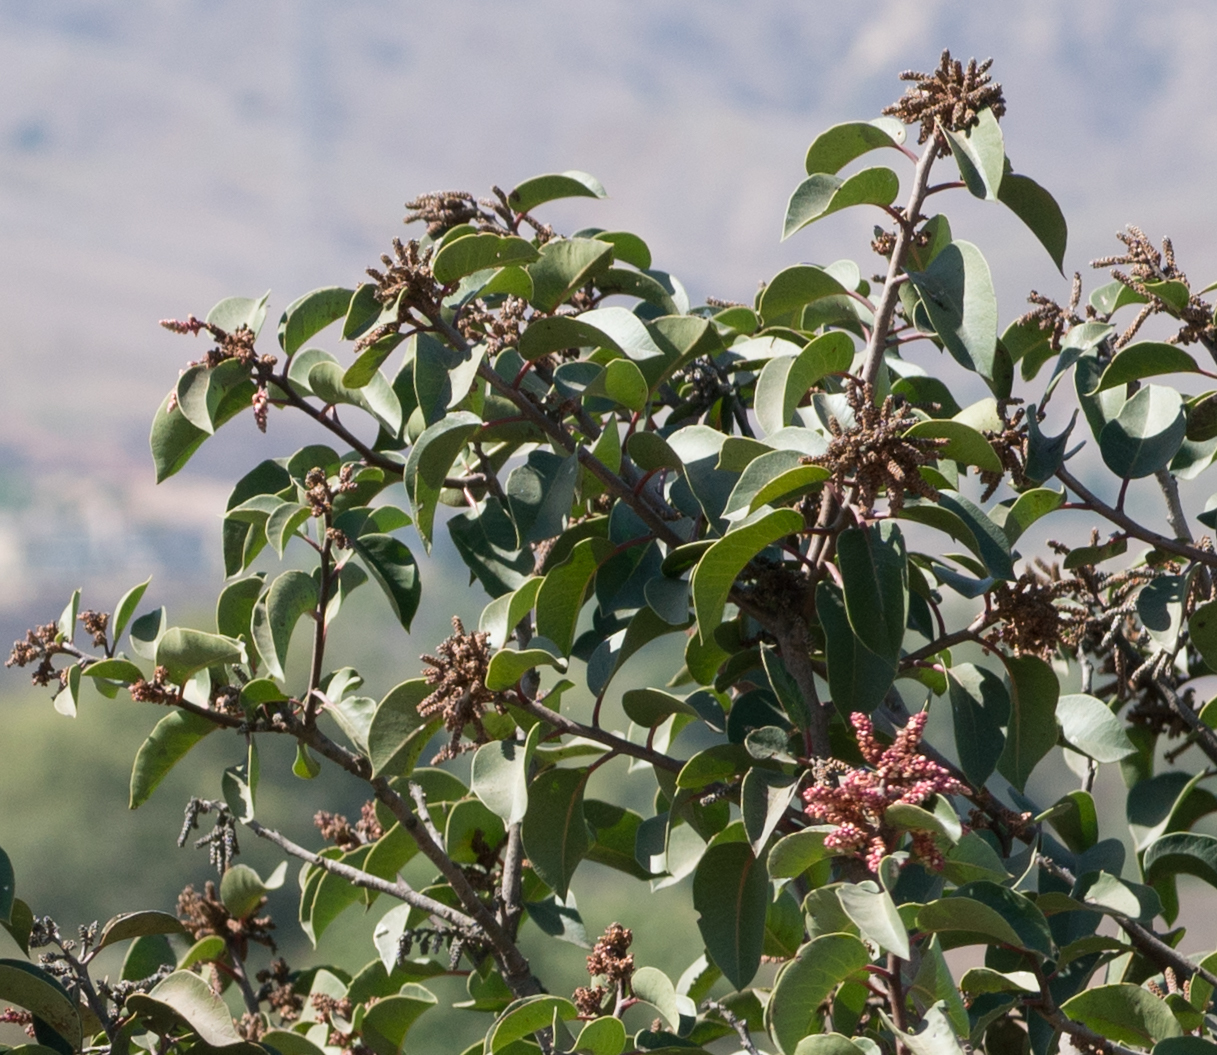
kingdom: Plantae
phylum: Tracheophyta
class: Magnoliopsida
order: Sapindales
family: Anacardiaceae
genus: Rhus
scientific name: Rhus ovata
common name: Sugar sumac
